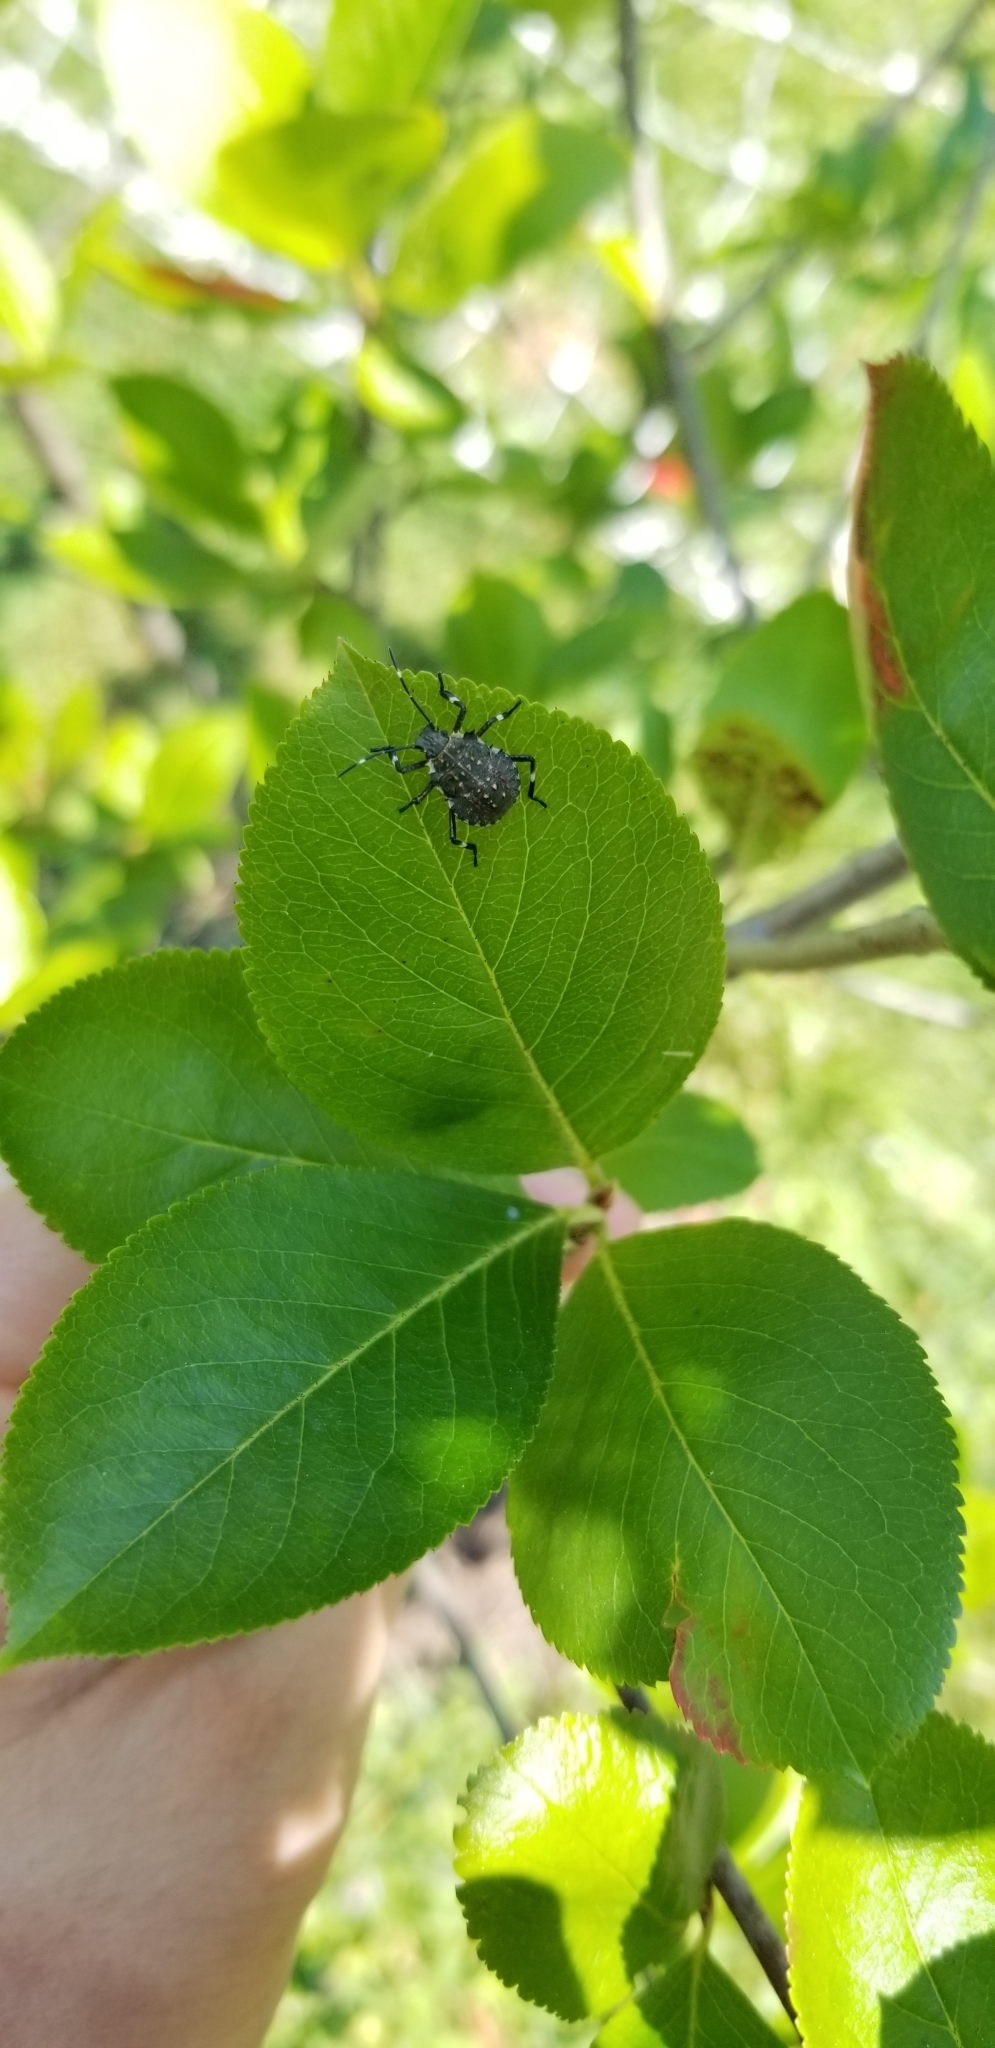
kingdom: Animalia
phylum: Arthropoda
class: Insecta
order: Hemiptera
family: Pentatomidae
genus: Halyomorpha
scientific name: Halyomorpha halys
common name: Brown marmorated stink bug
